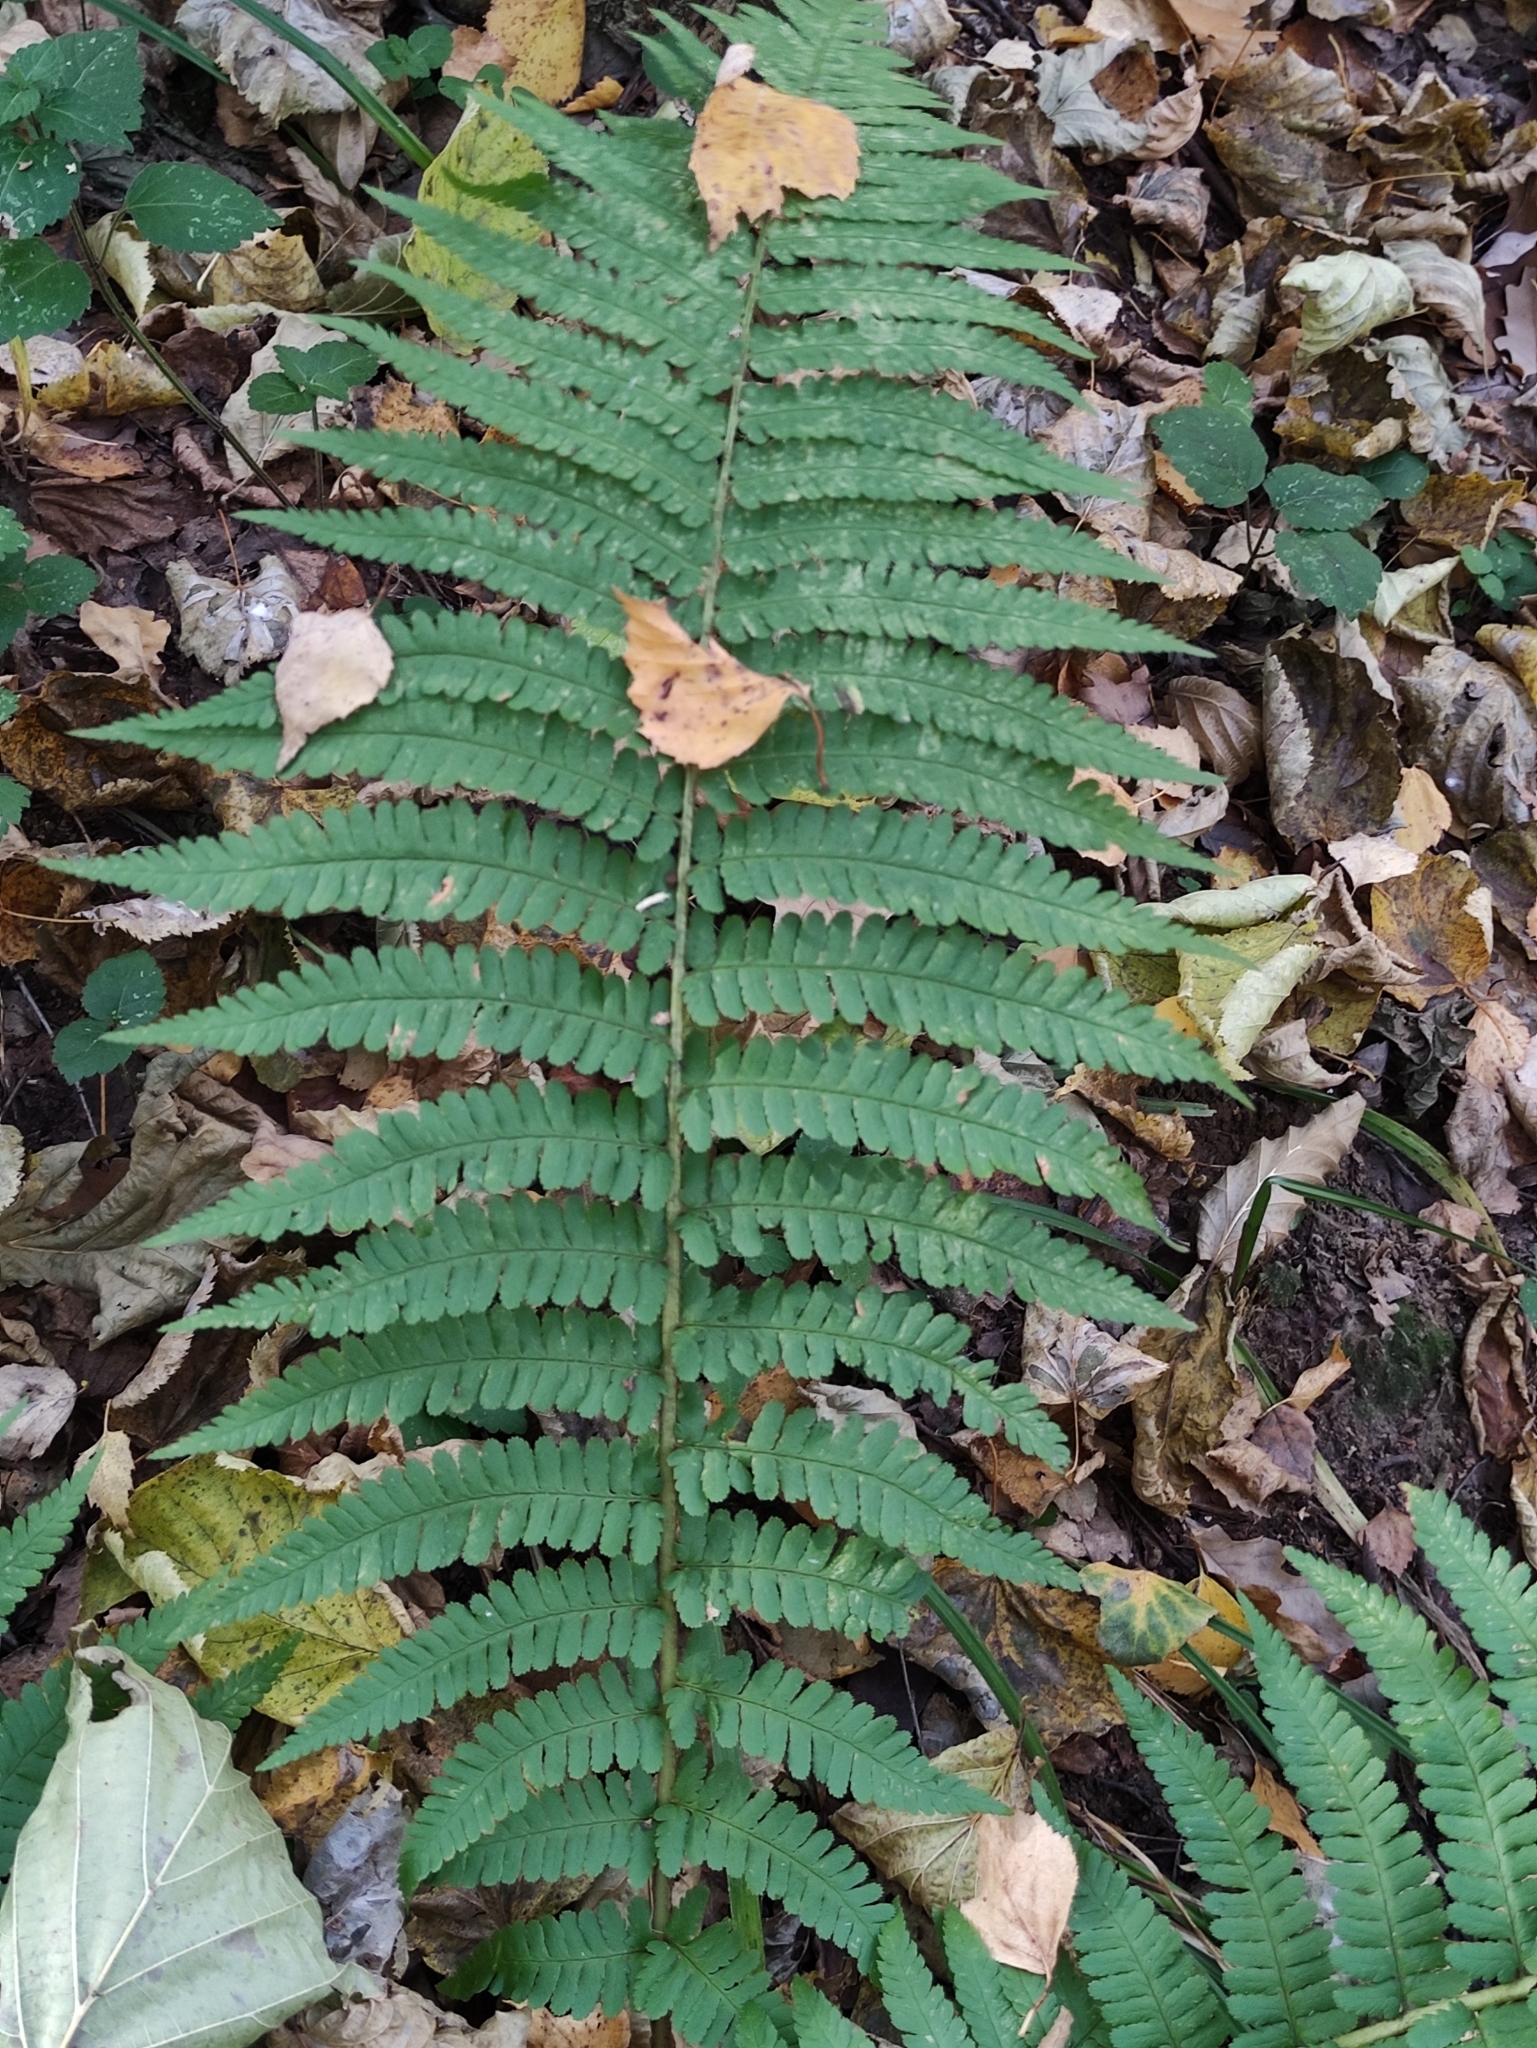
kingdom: Plantae
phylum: Tracheophyta
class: Polypodiopsida
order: Polypodiales
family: Dryopteridaceae
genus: Dryopteris
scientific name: Dryopteris filix-mas
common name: Male fern
